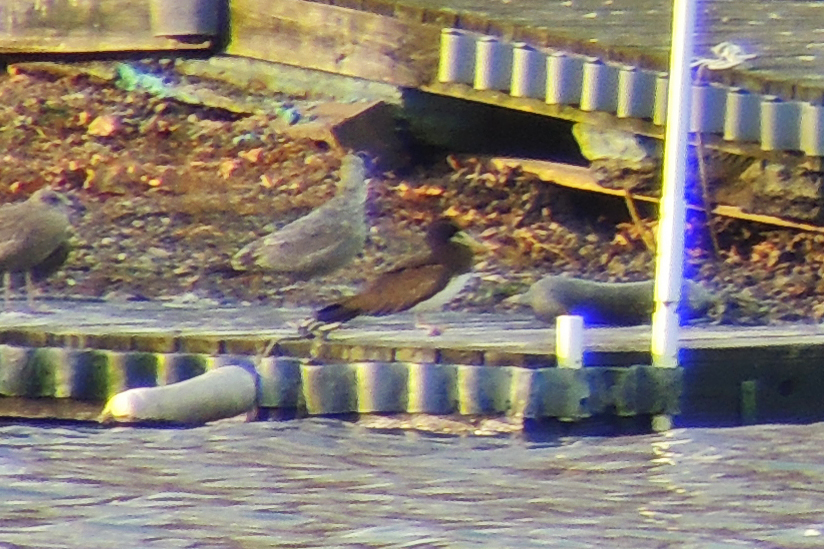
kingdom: Animalia
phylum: Chordata
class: Aves
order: Suliformes
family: Sulidae
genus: Sula
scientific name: Sula leucogaster
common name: Brown booby
